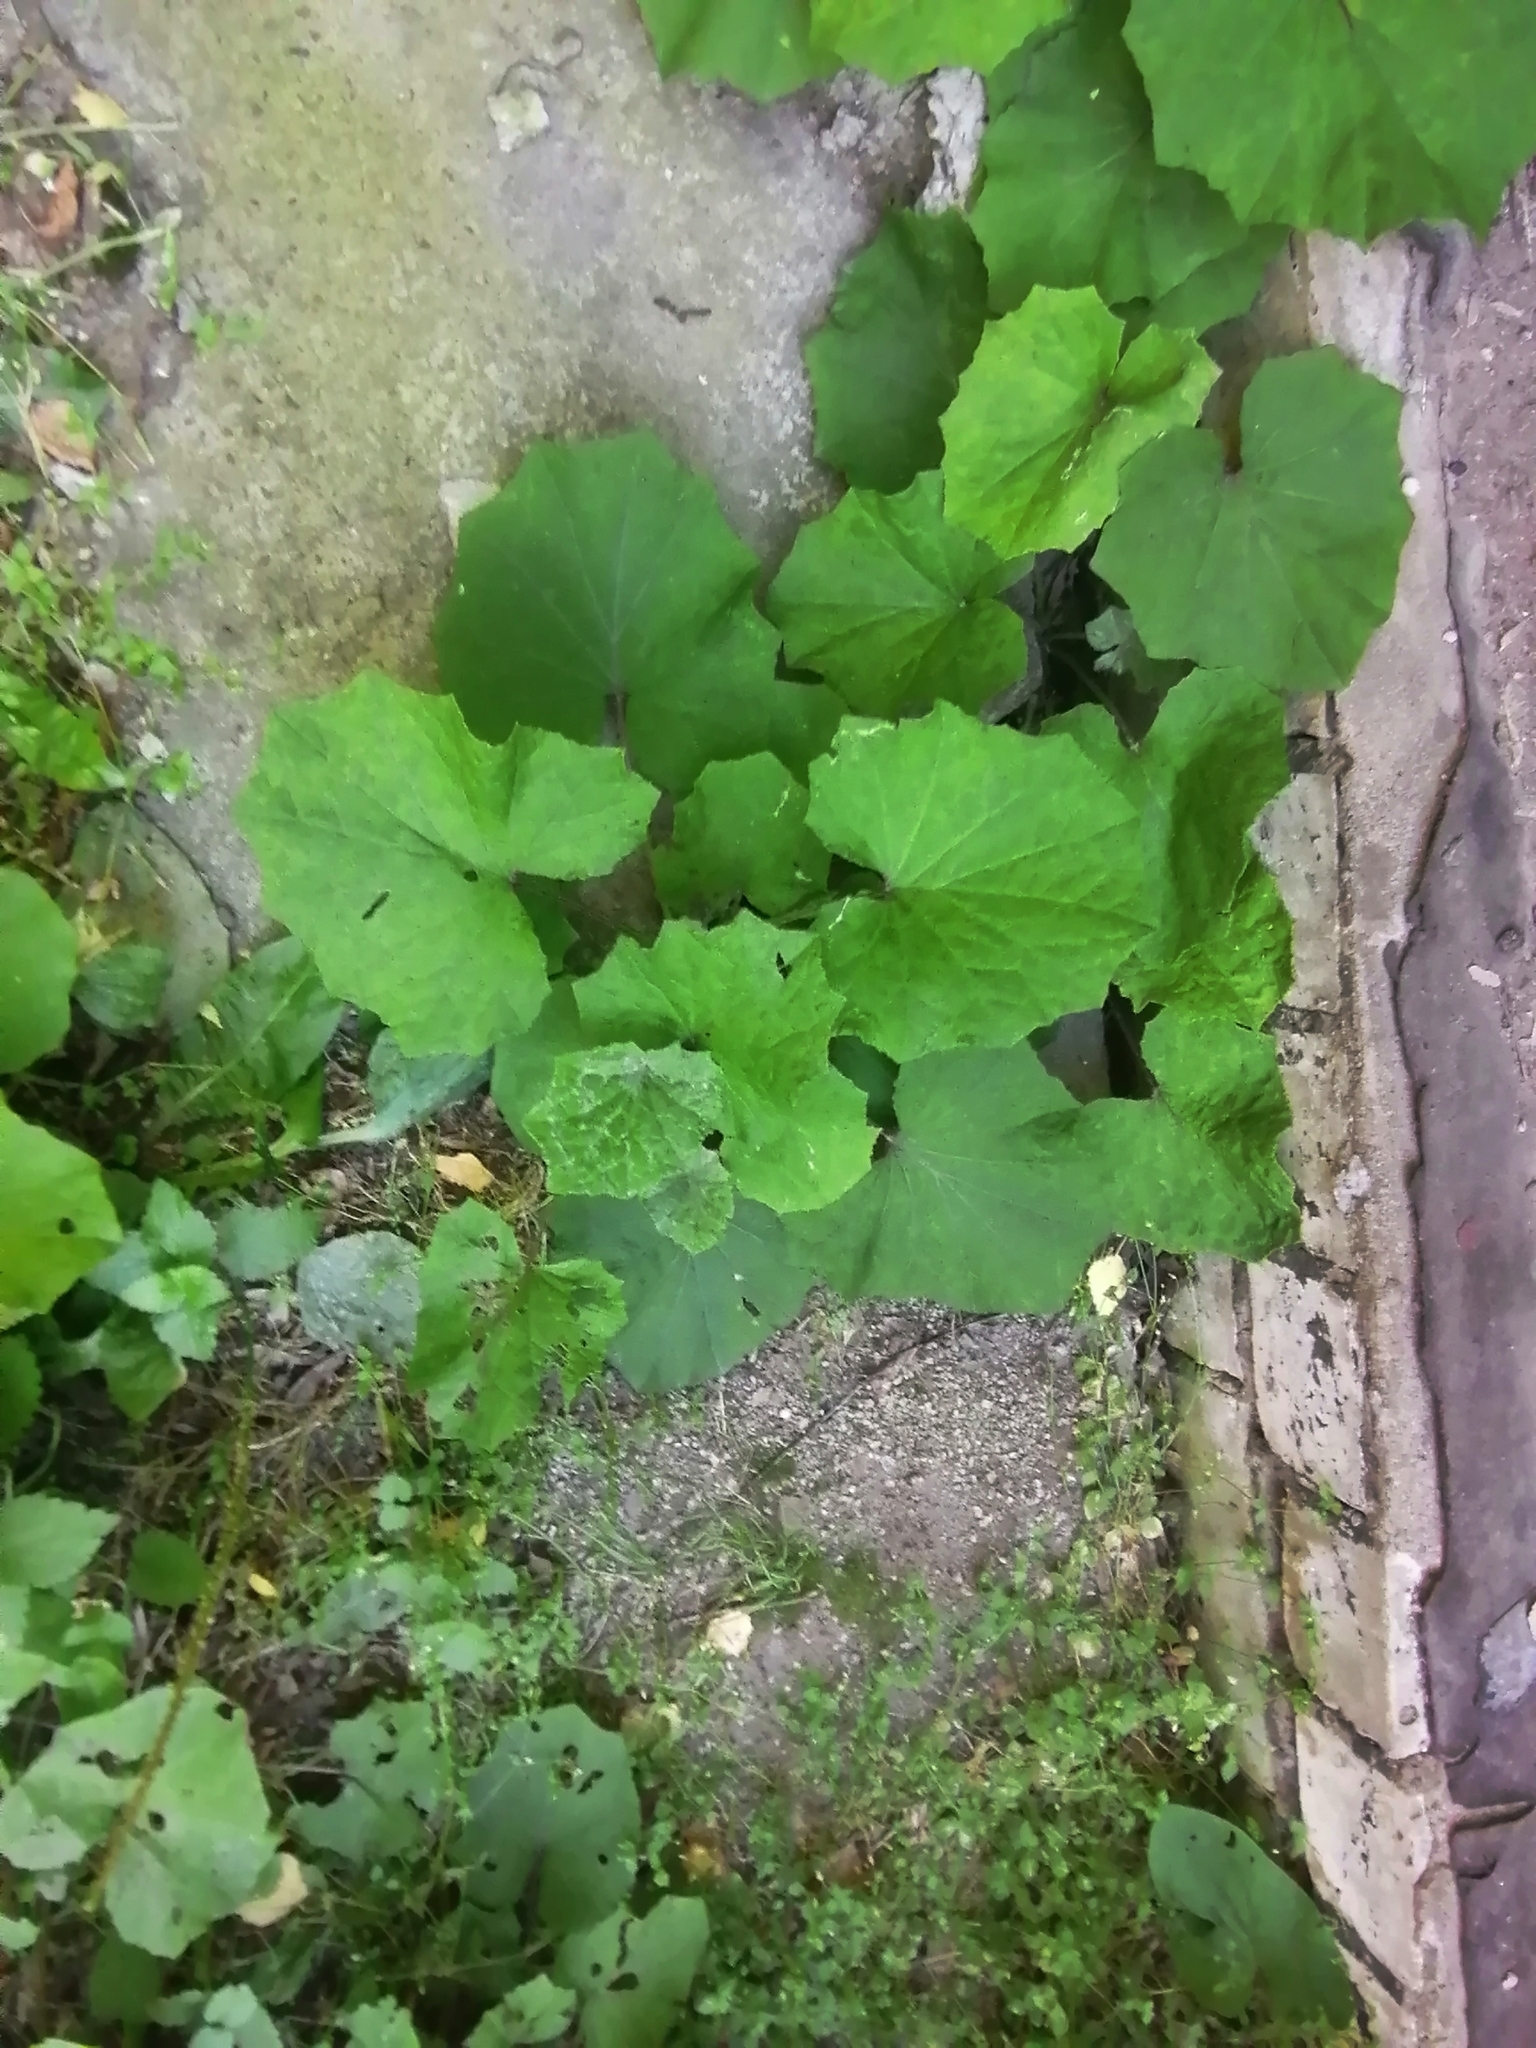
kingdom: Plantae
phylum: Tracheophyta
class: Magnoliopsida
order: Asterales
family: Asteraceae
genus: Tussilago
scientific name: Tussilago farfara
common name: Coltsfoot
